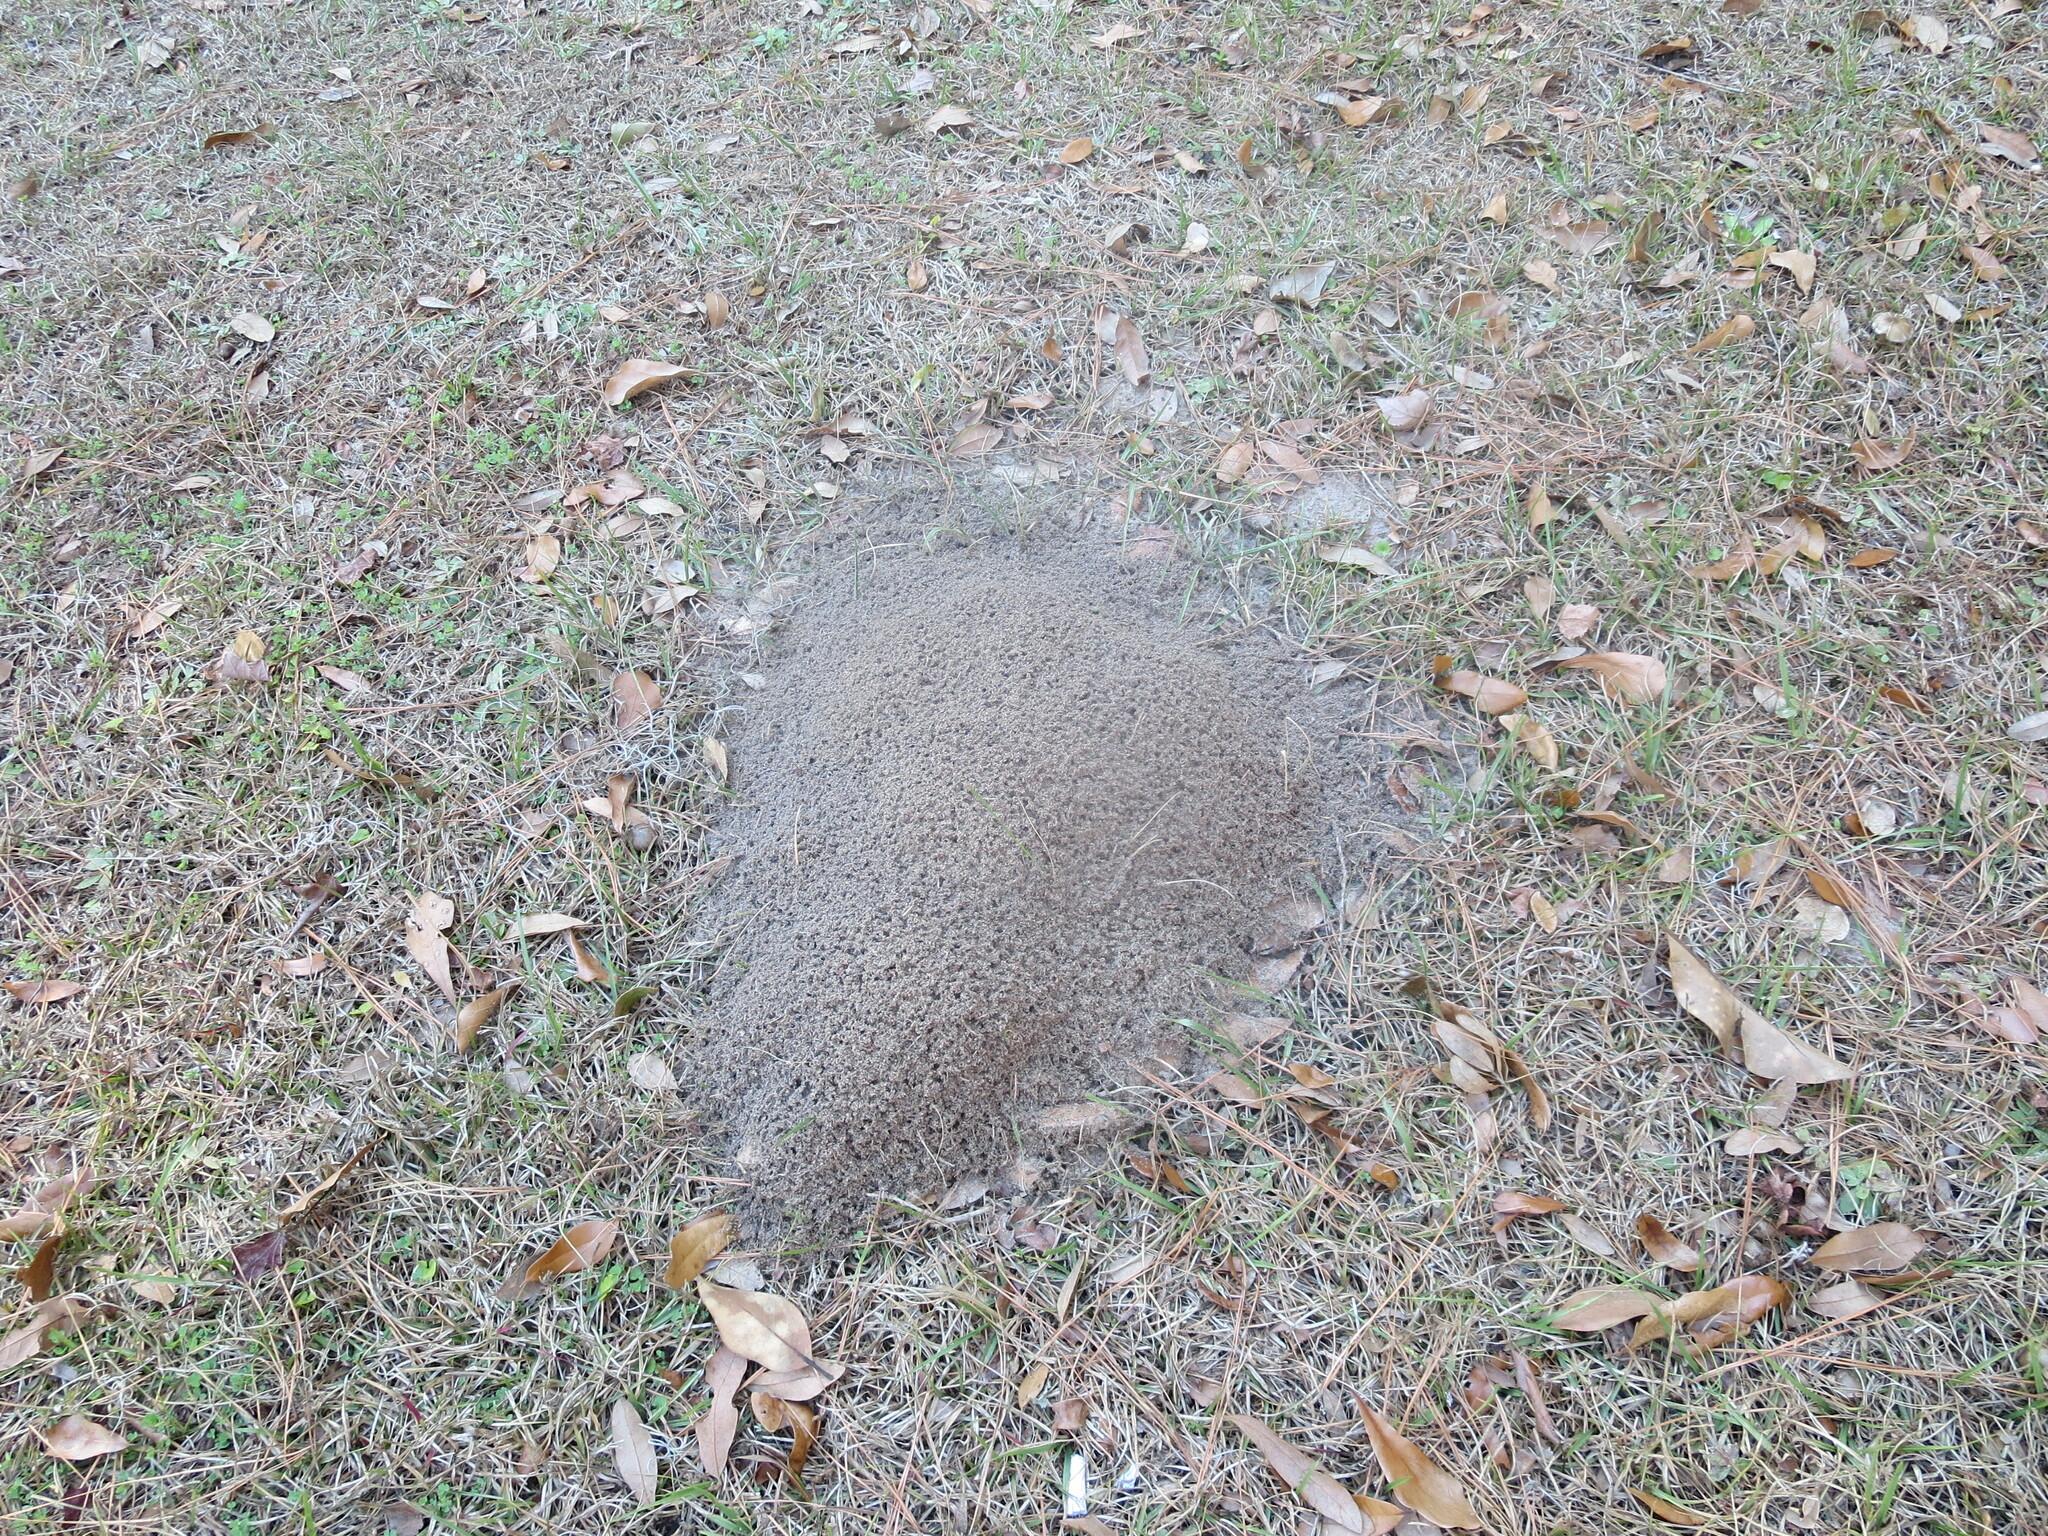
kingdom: Animalia
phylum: Arthropoda
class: Insecta
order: Hymenoptera
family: Formicidae
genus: Solenopsis
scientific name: Solenopsis invicta
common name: Red imported fire ant
